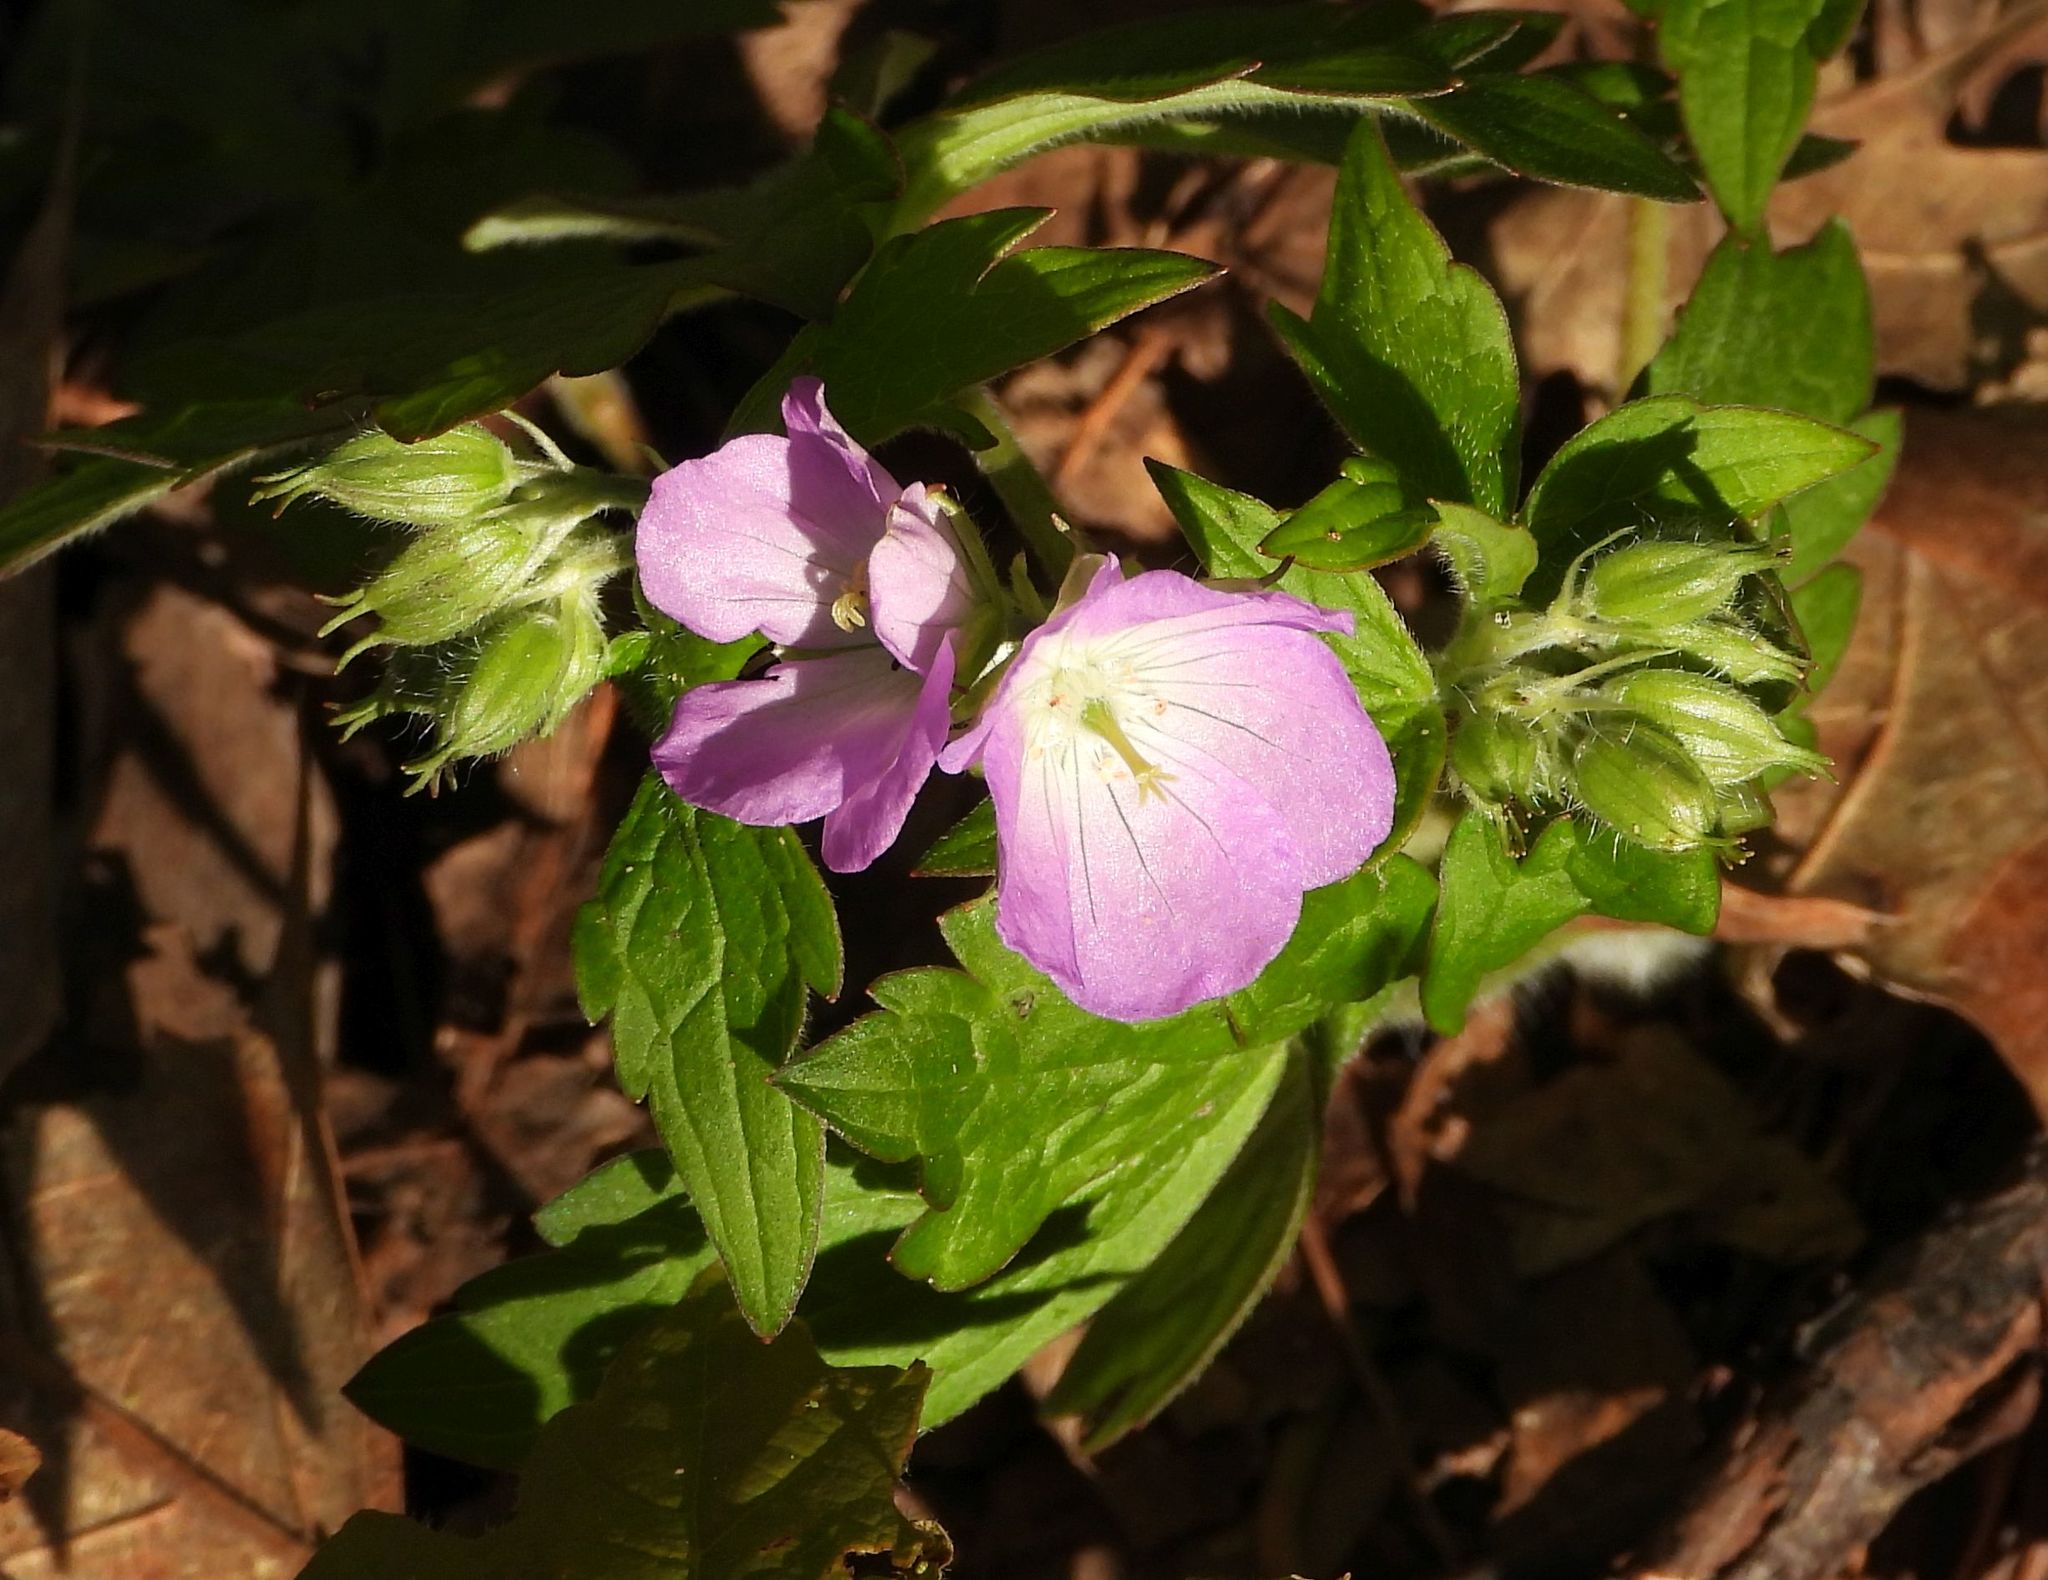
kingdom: Plantae
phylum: Tracheophyta
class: Magnoliopsida
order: Geraniales
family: Geraniaceae
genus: Geranium
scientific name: Geranium maculatum
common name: Spotted geranium
